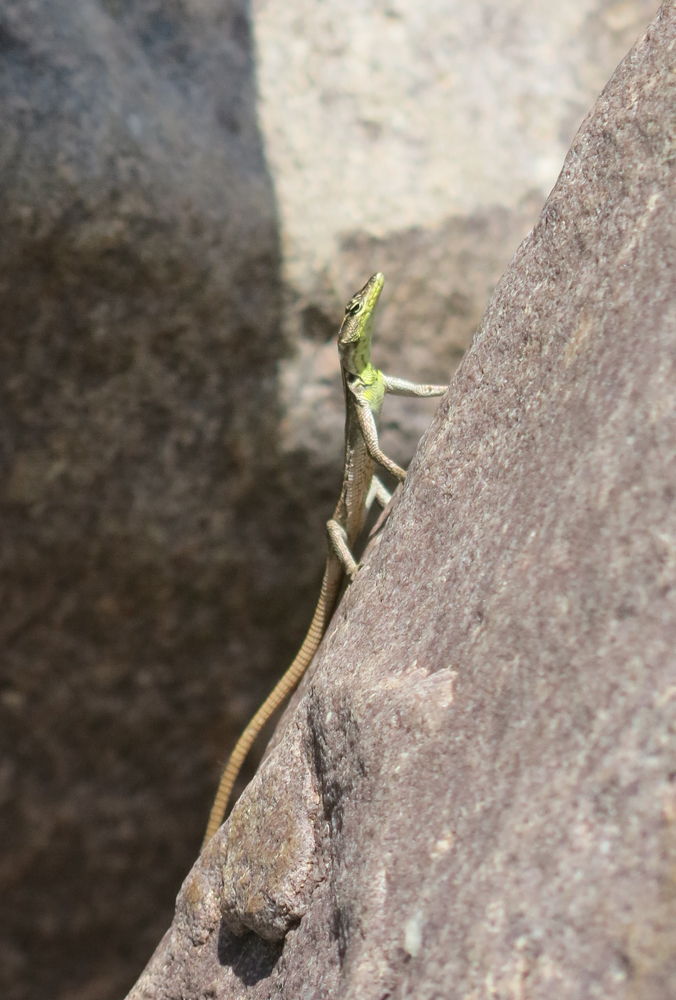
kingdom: Animalia
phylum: Chordata
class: Squamata
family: Cordylidae
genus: Platysaurus
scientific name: Platysaurus relictus
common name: Soutpansberg flat lizard
